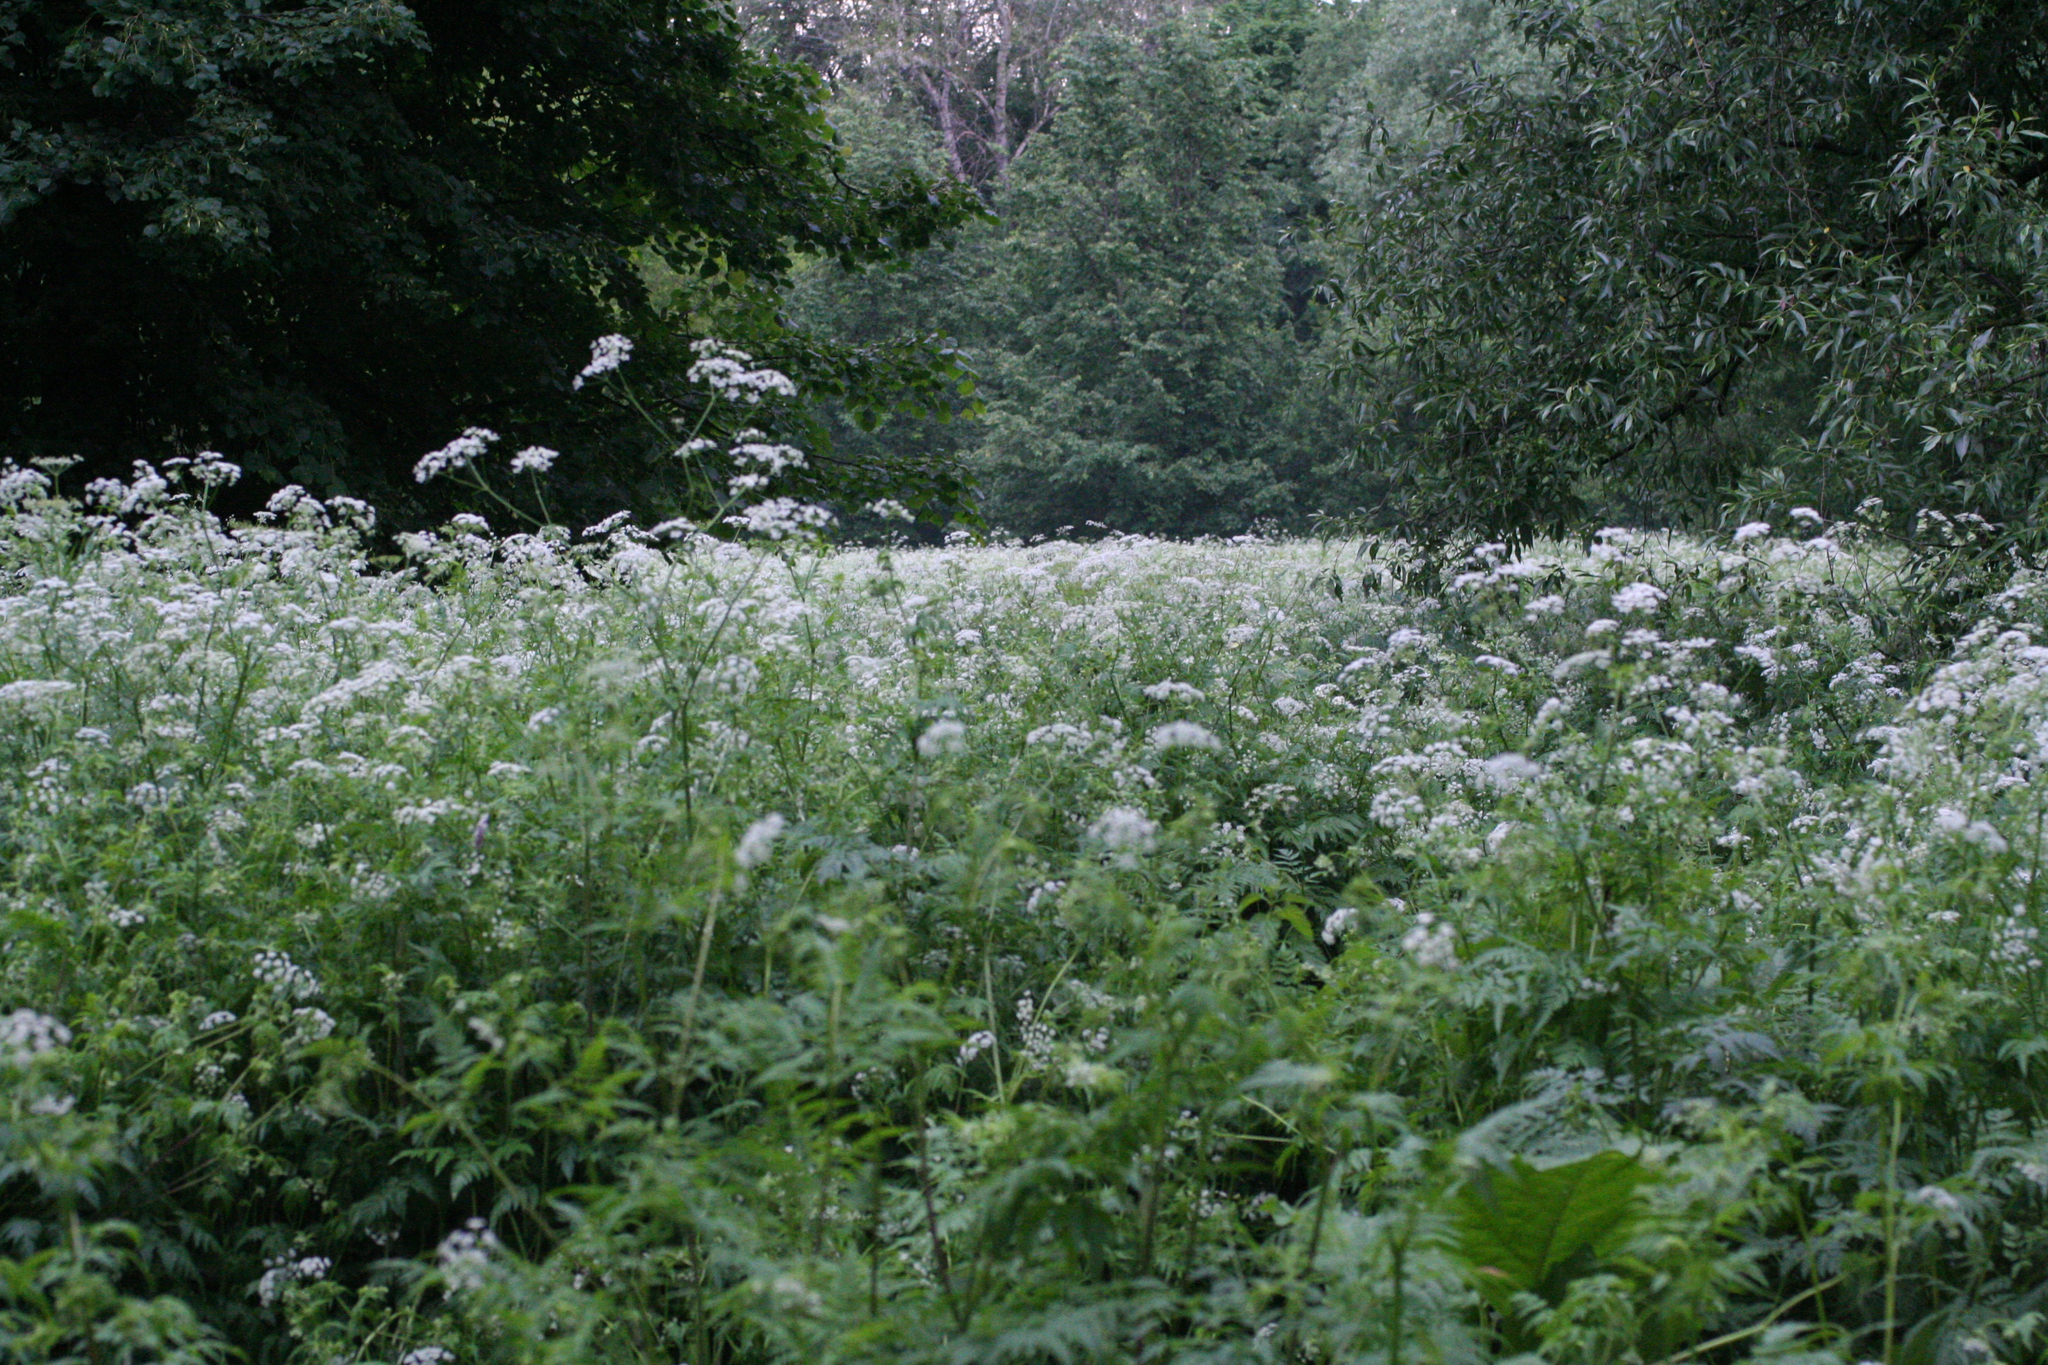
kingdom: Plantae
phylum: Tracheophyta
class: Magnoliopsida
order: Apiales
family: Apiaceae
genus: Chaerophyllum
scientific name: Chaerophyllum aureum
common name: Golden chervil
